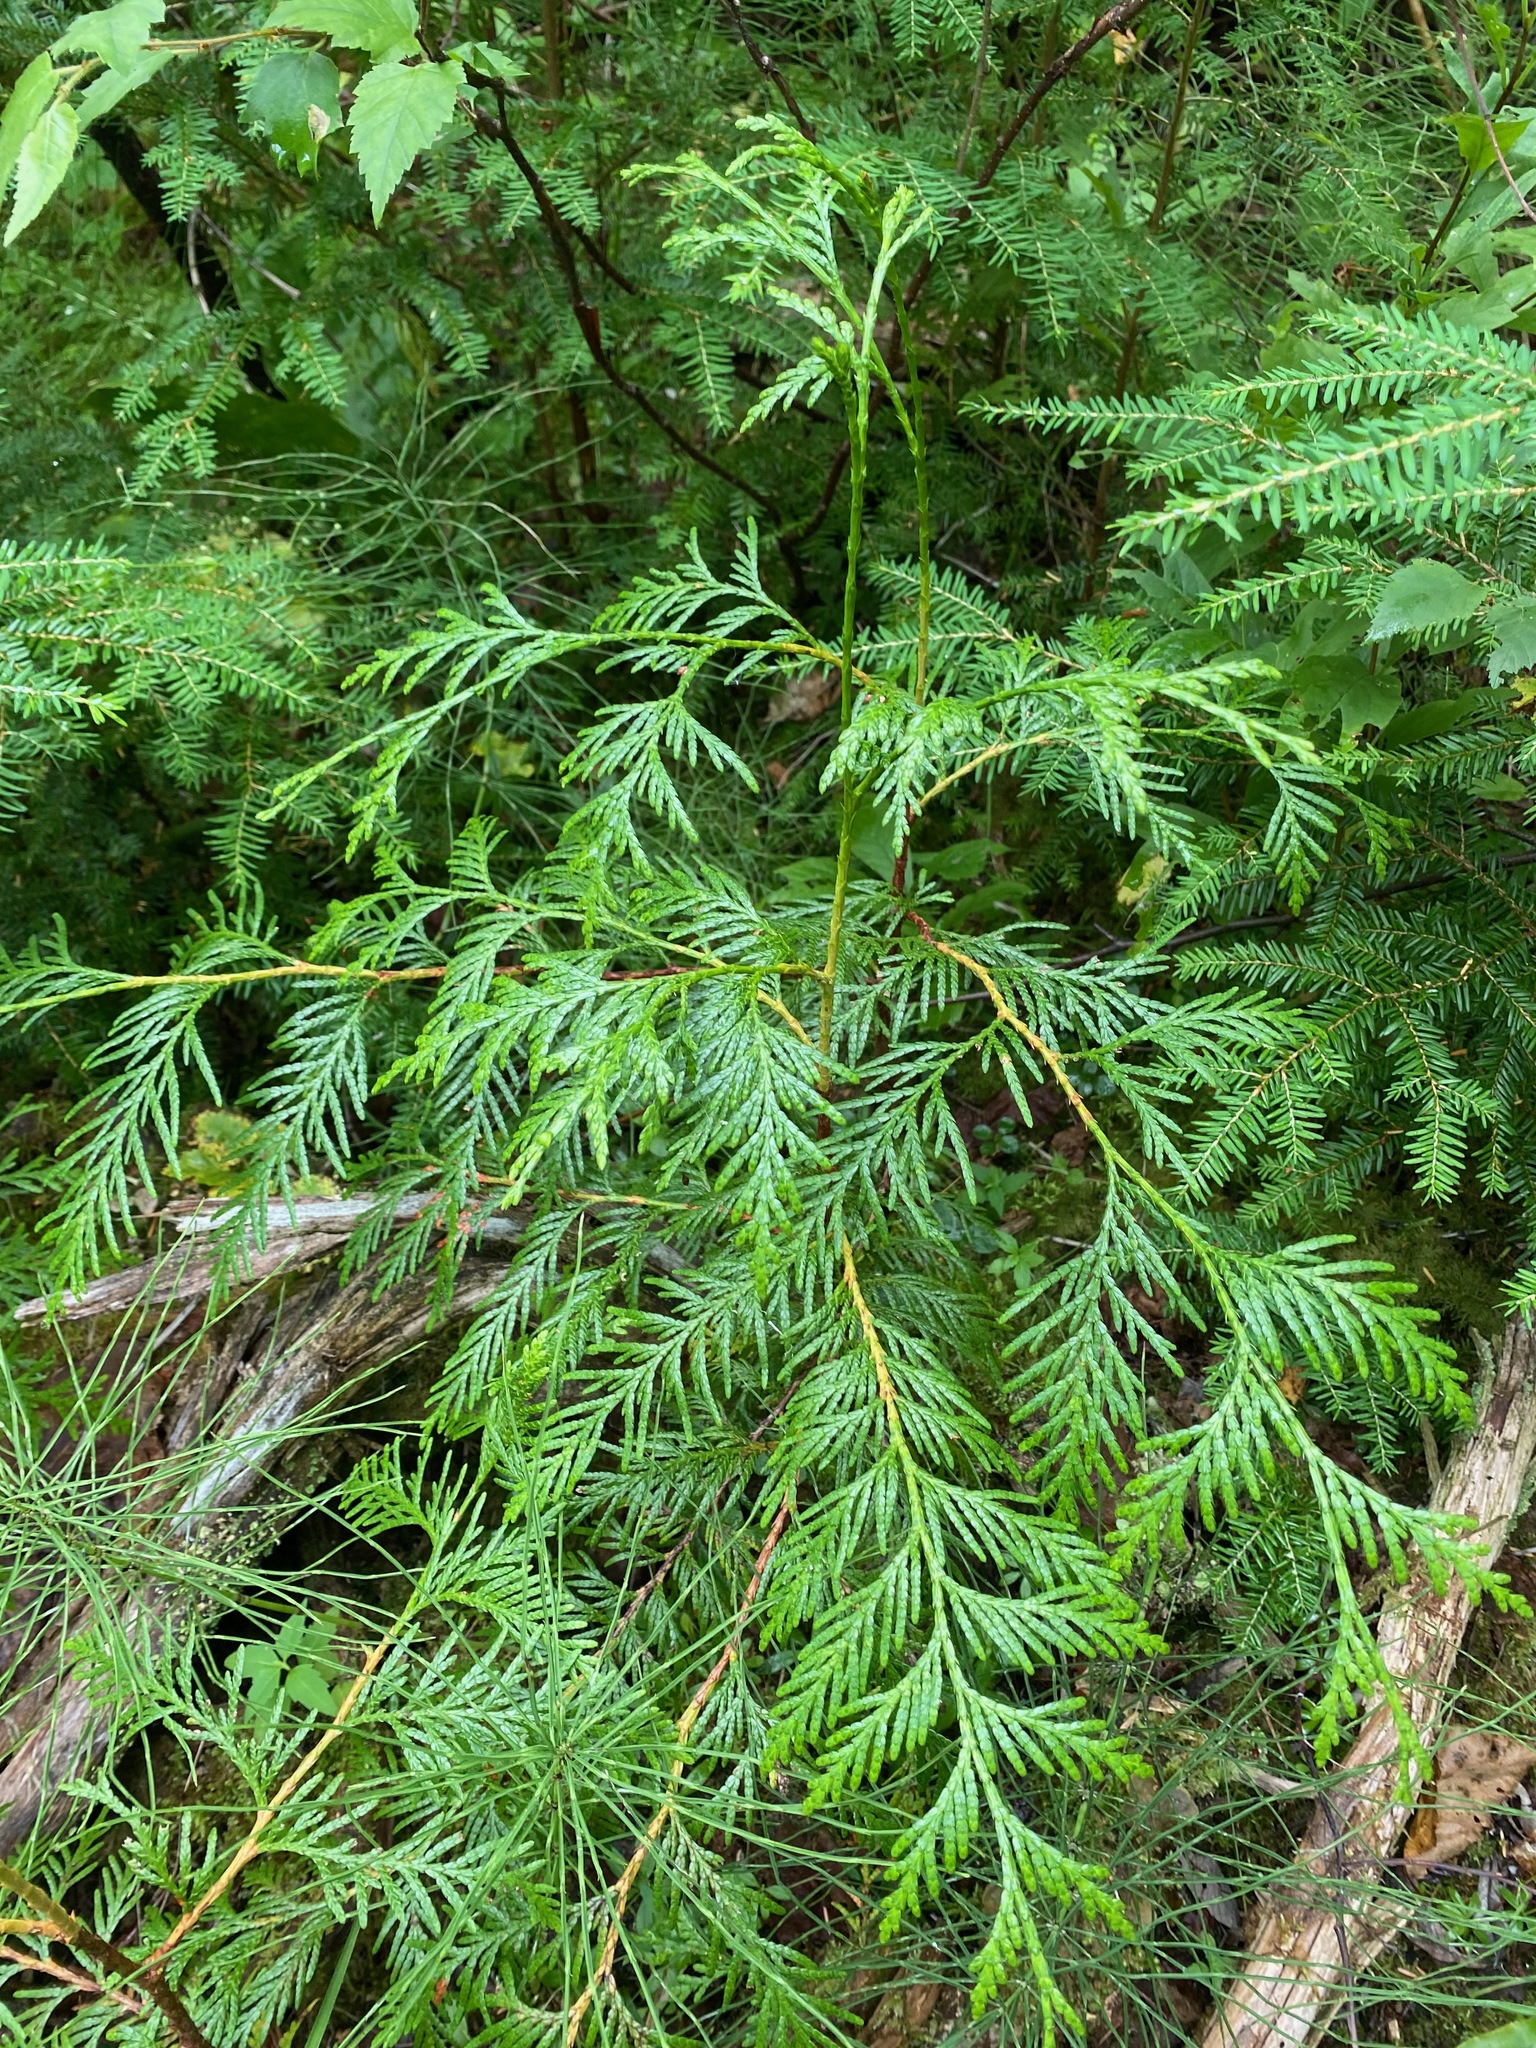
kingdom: Plantae
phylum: Tracheophyta
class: Pinopsida
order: Pinales
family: Cupressaceae
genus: Thuja
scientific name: Thuja plicata
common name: Western red-cedar
